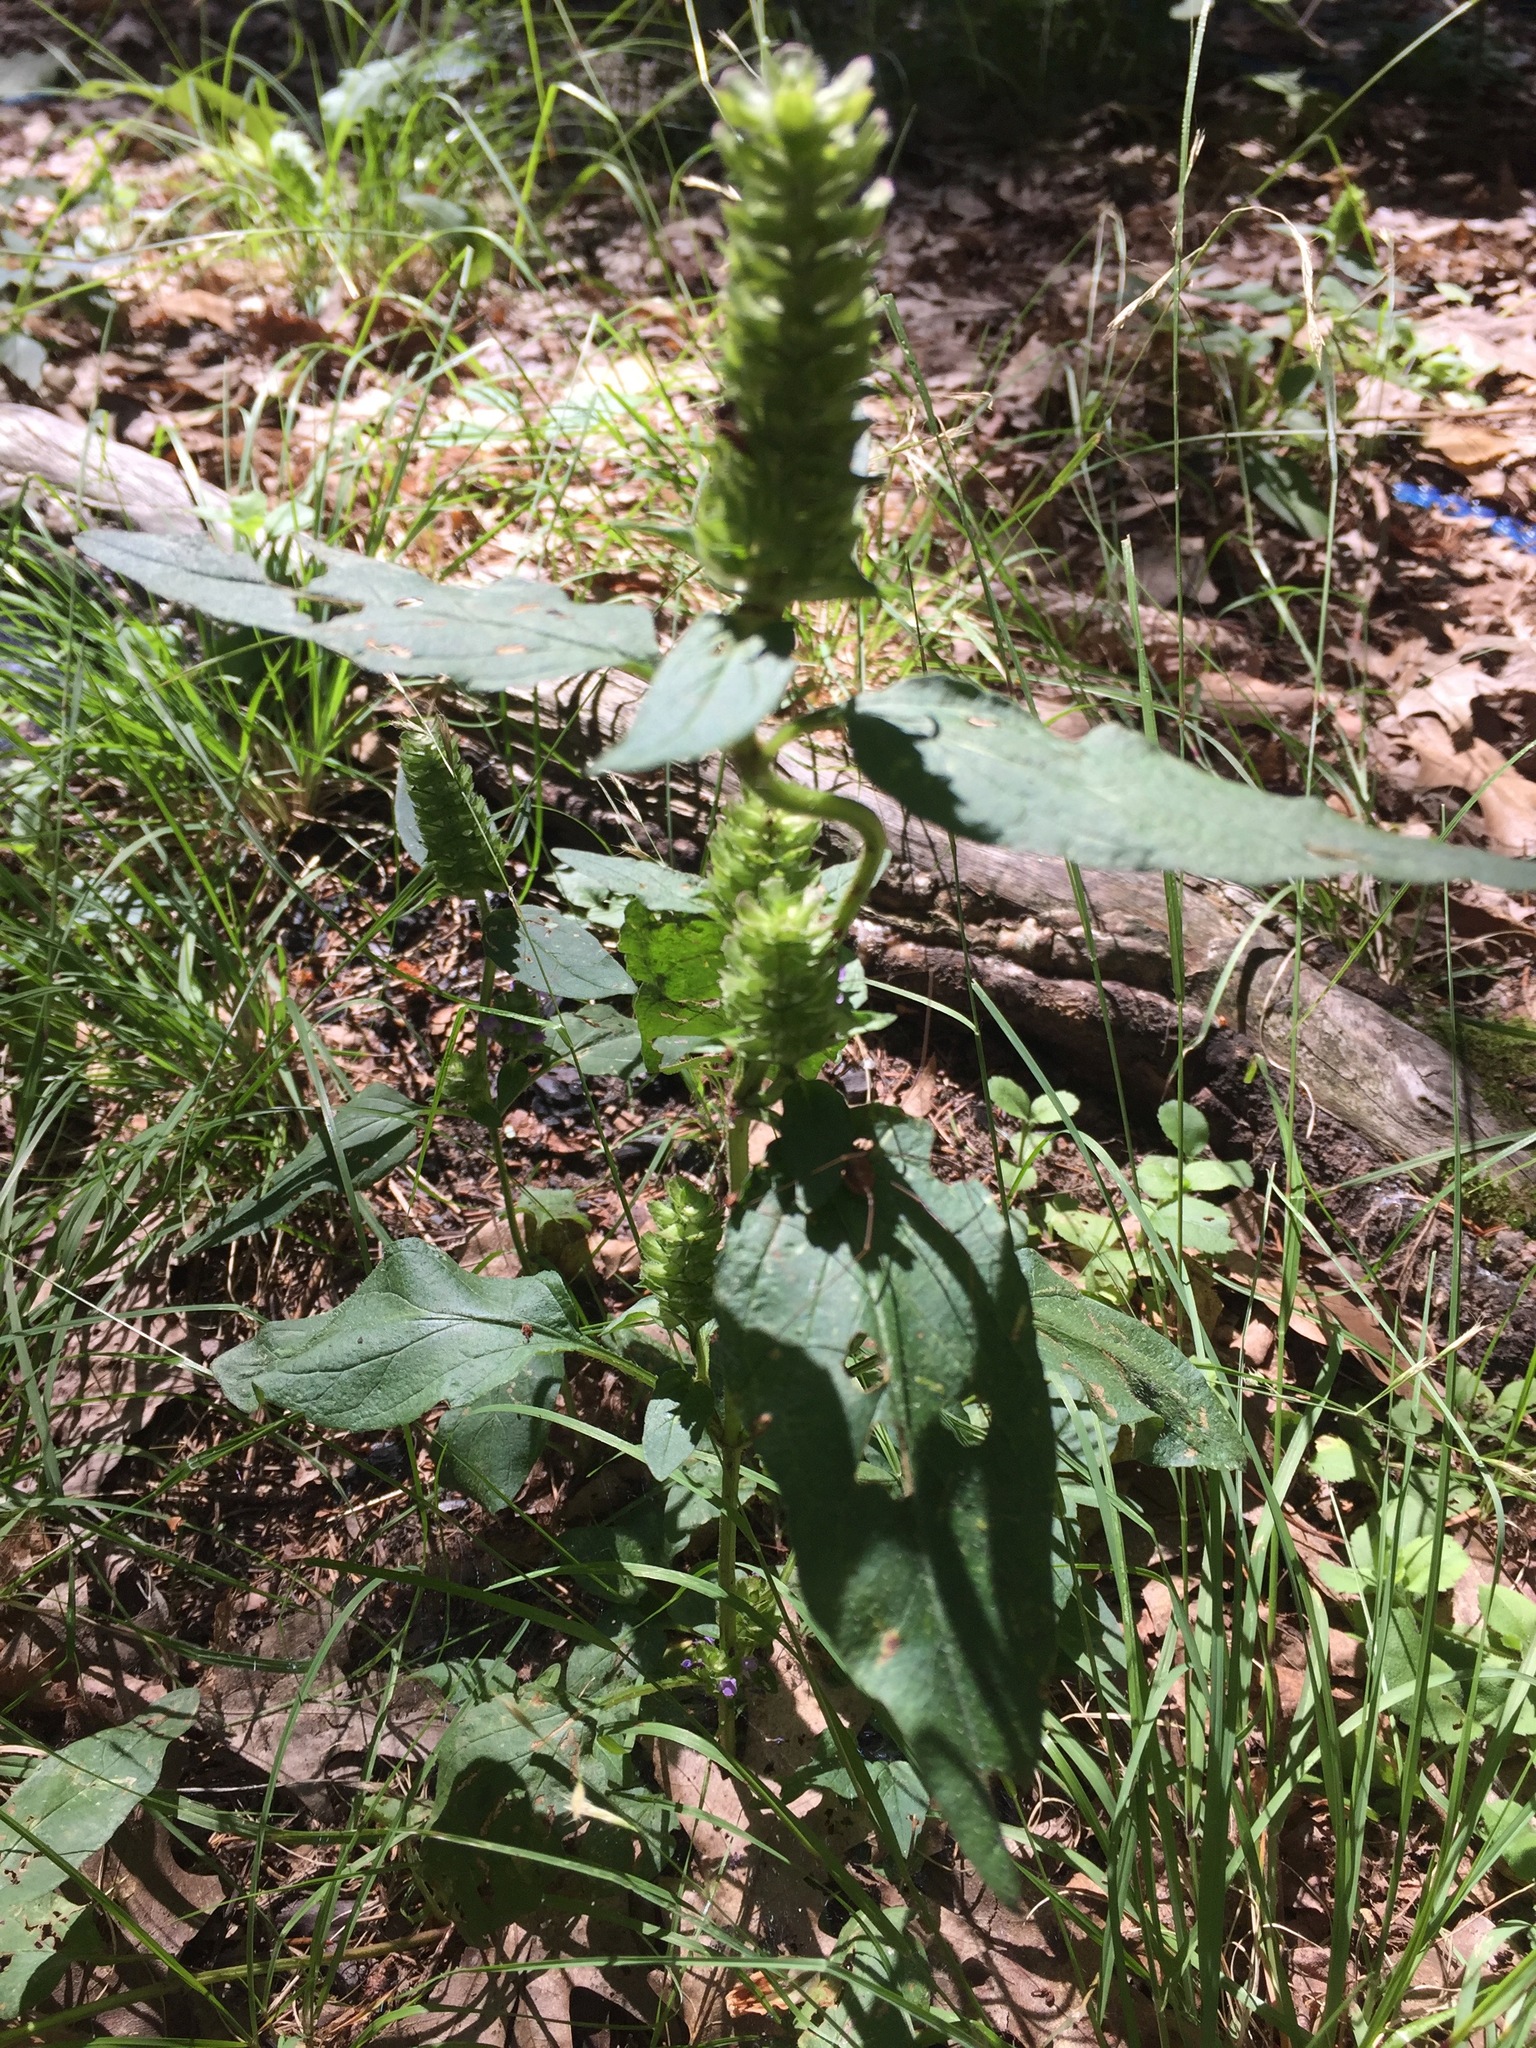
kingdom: Plantae
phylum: Tracheophyta
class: Magnoliopsida
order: Lamiales
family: Lamiaceae
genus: Prunella
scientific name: Prunella vulgaris
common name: Heal-all
